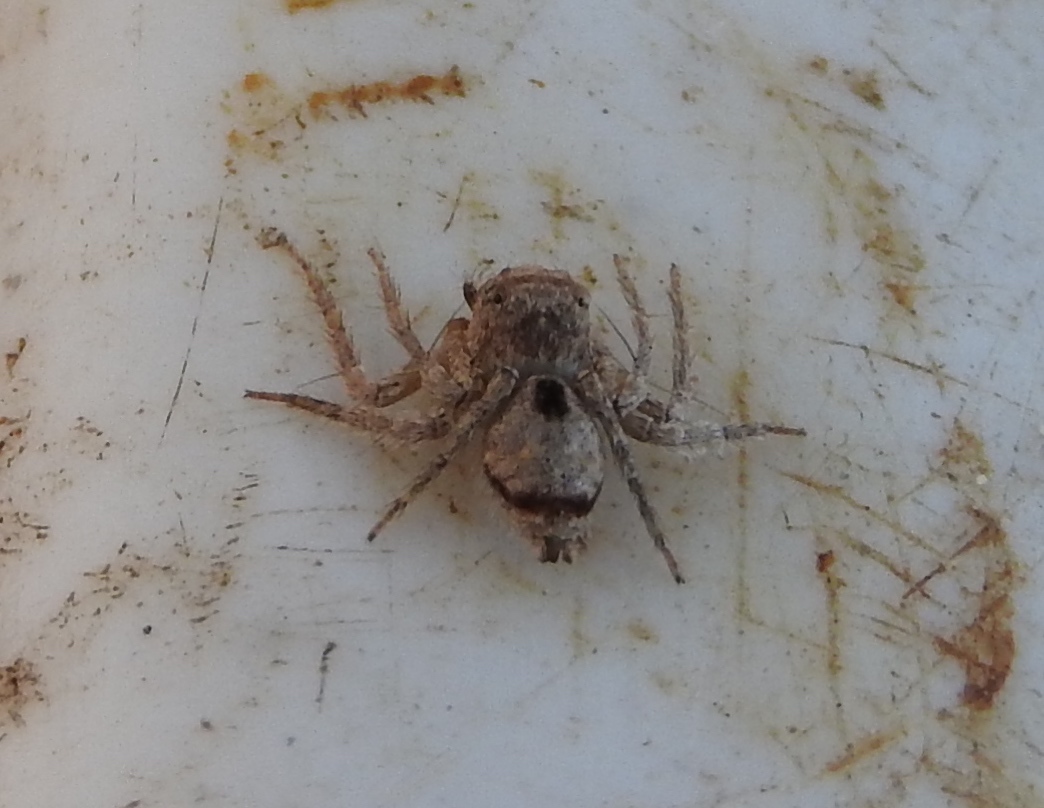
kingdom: Animalia
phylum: Arthropoda
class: Arachnida
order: Araneae
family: Oxyopidae
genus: Hamataliwa
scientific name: Hamataliwa
